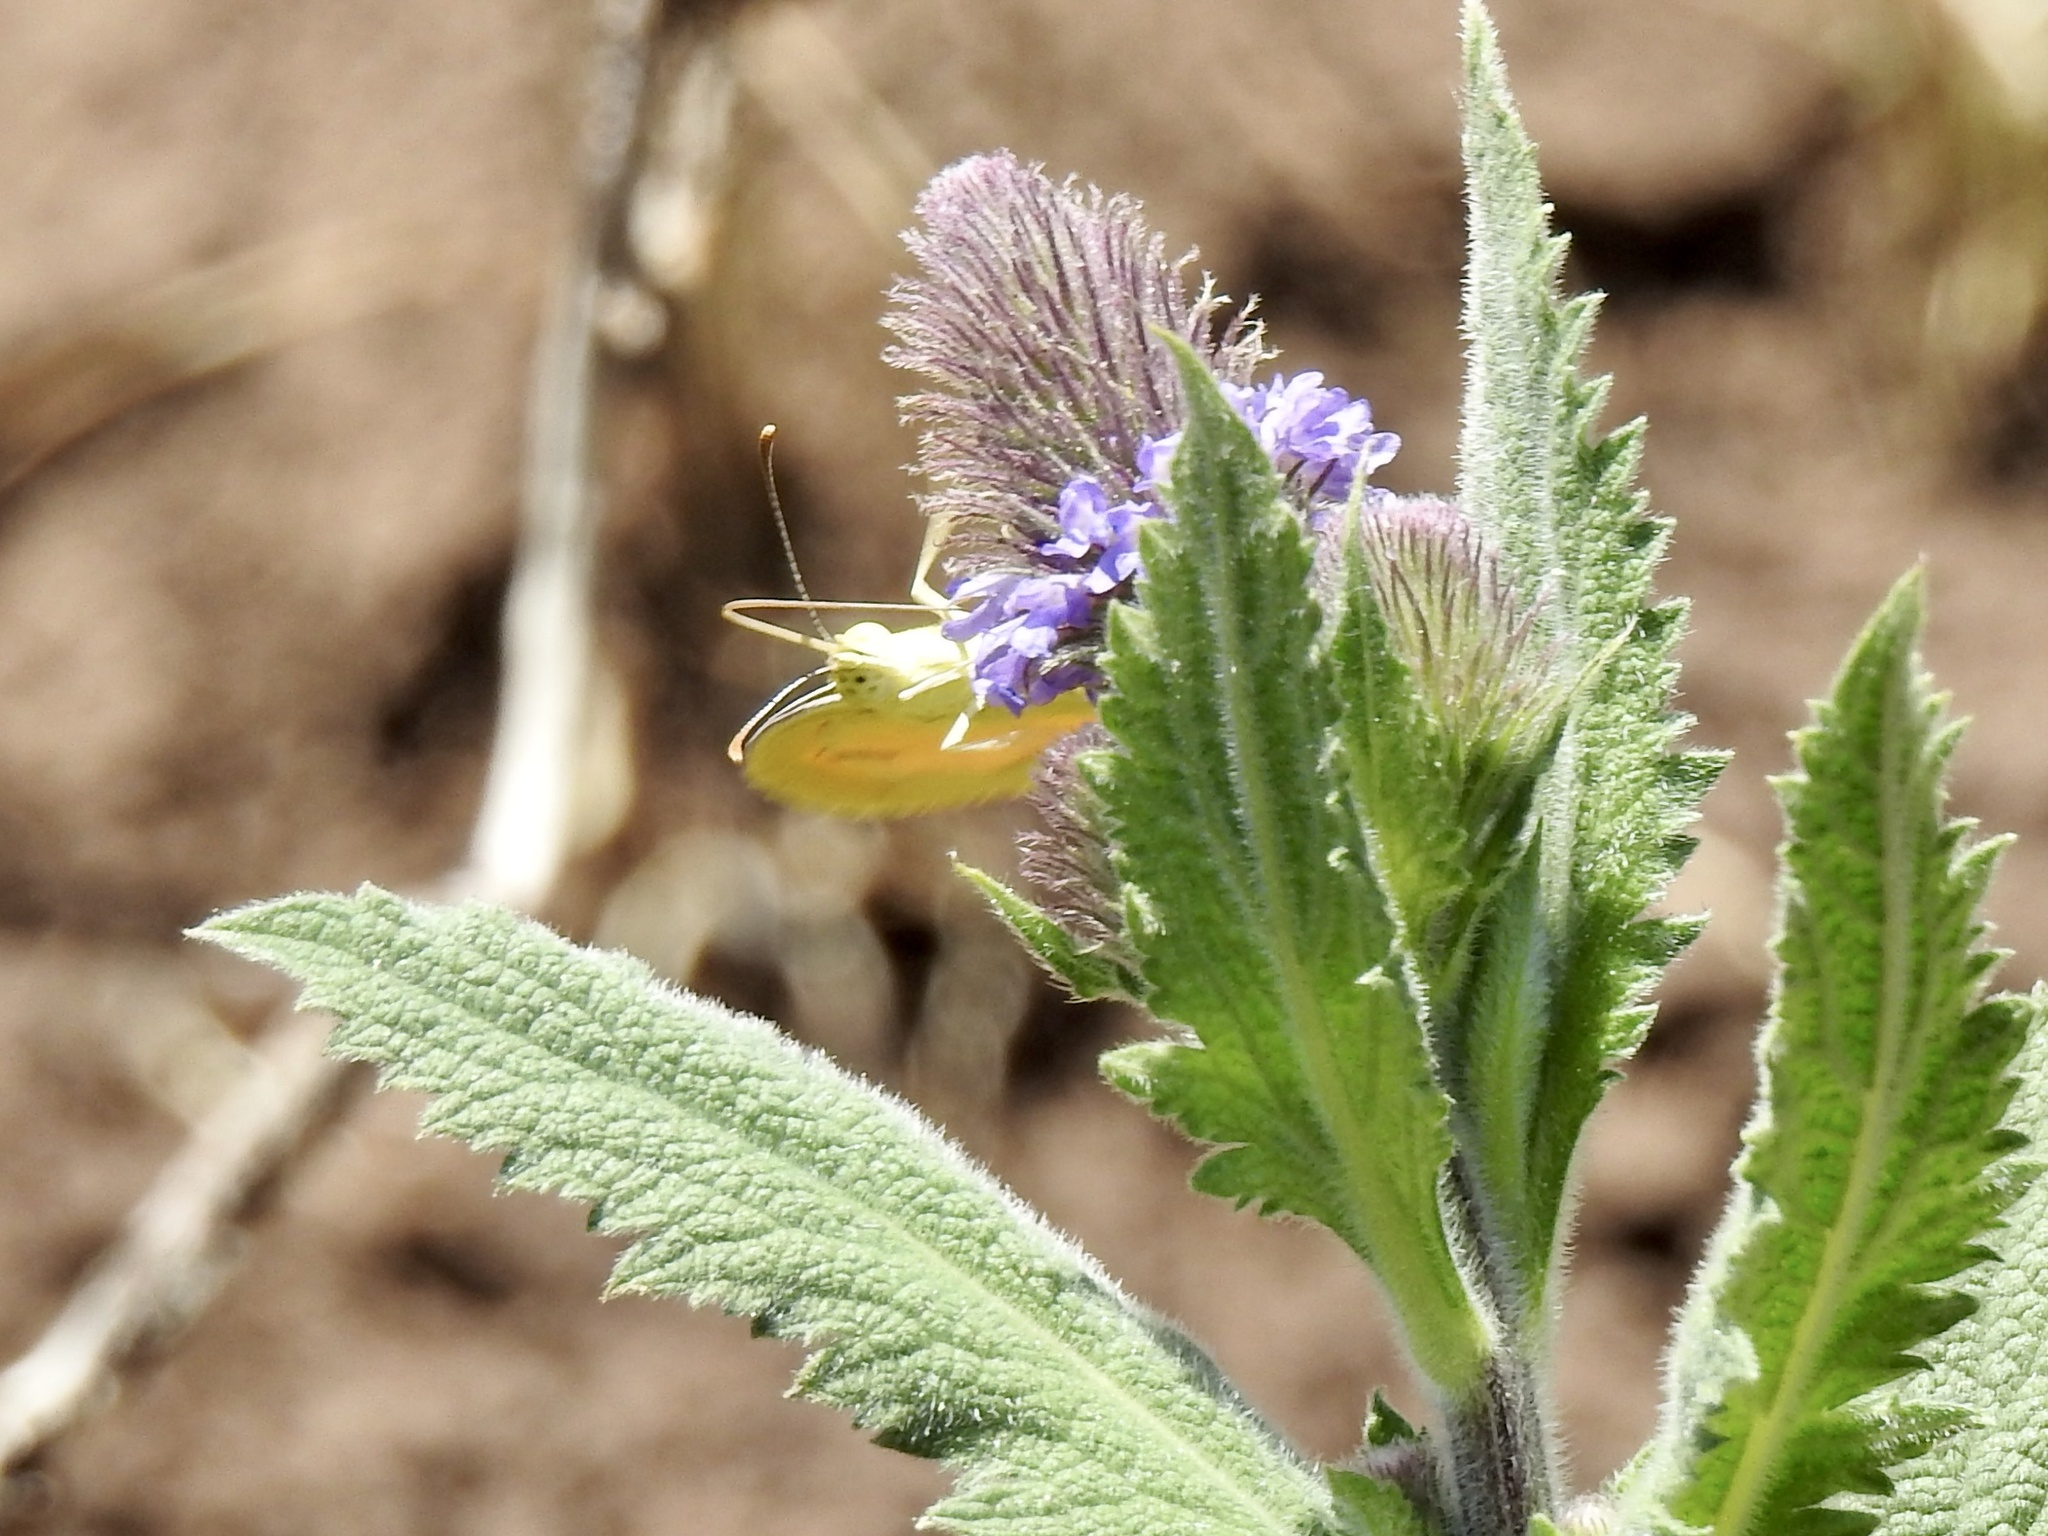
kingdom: Animalia
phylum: Arthropoda
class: Insecta
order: Lepidoptera
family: Pieridae
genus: Abaeis
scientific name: Abaeis nicippe
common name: Sleepy orange
